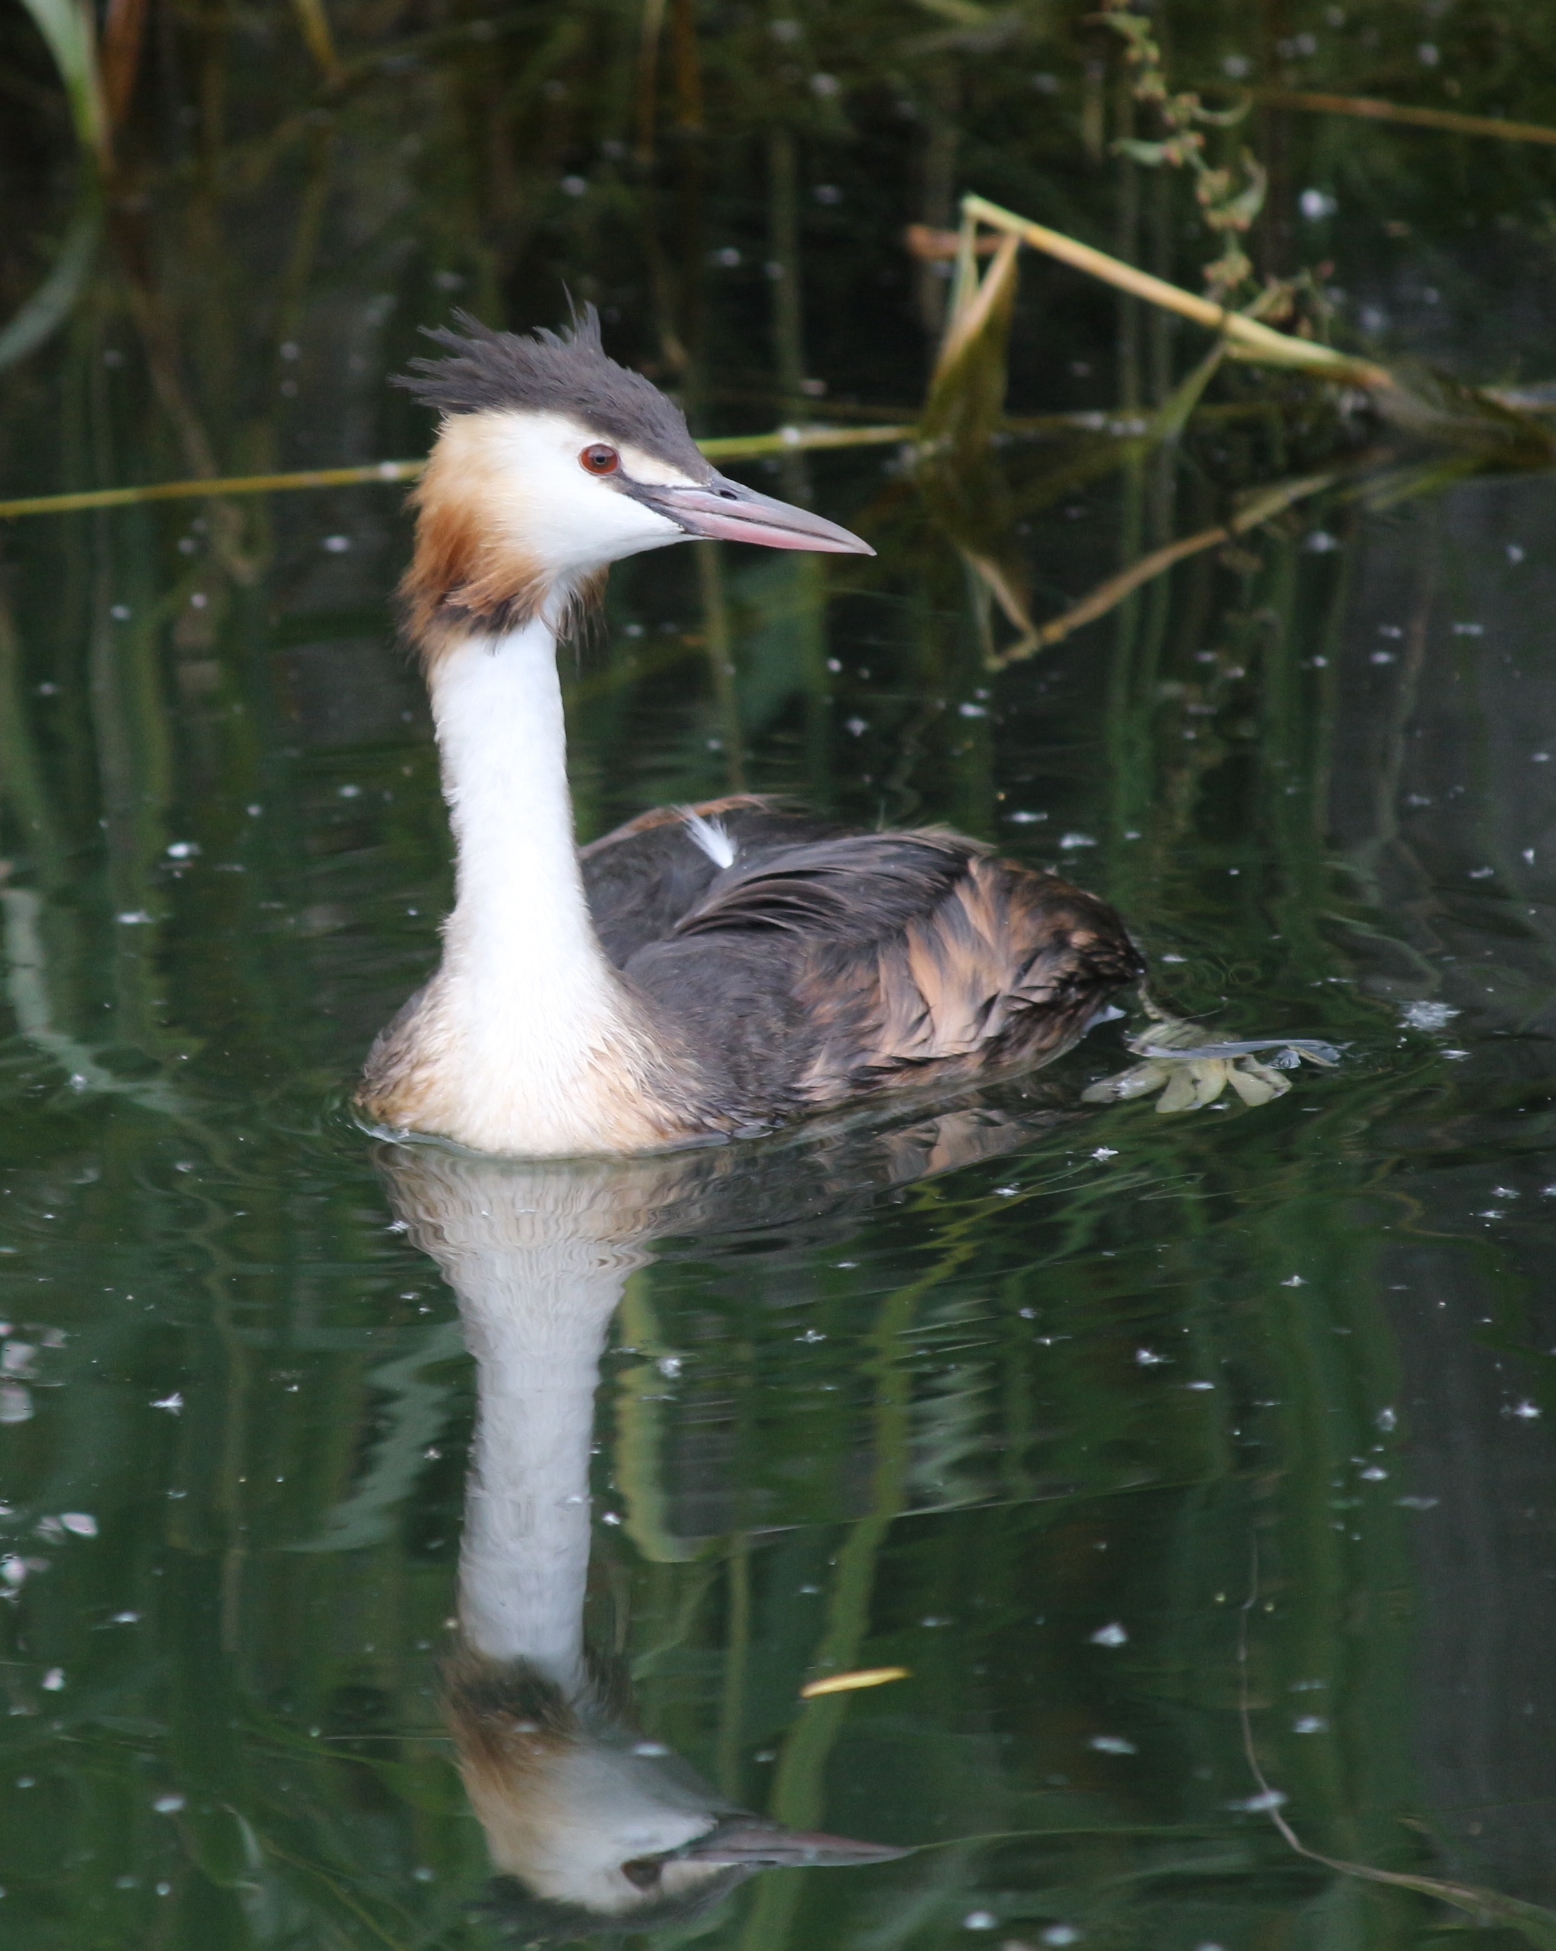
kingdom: Animalia
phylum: Chordata
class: Aves
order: Podicipediformes
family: Podicipedidae
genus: Podiceps
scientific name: Podiceps cristatus
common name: Great crested grebe
